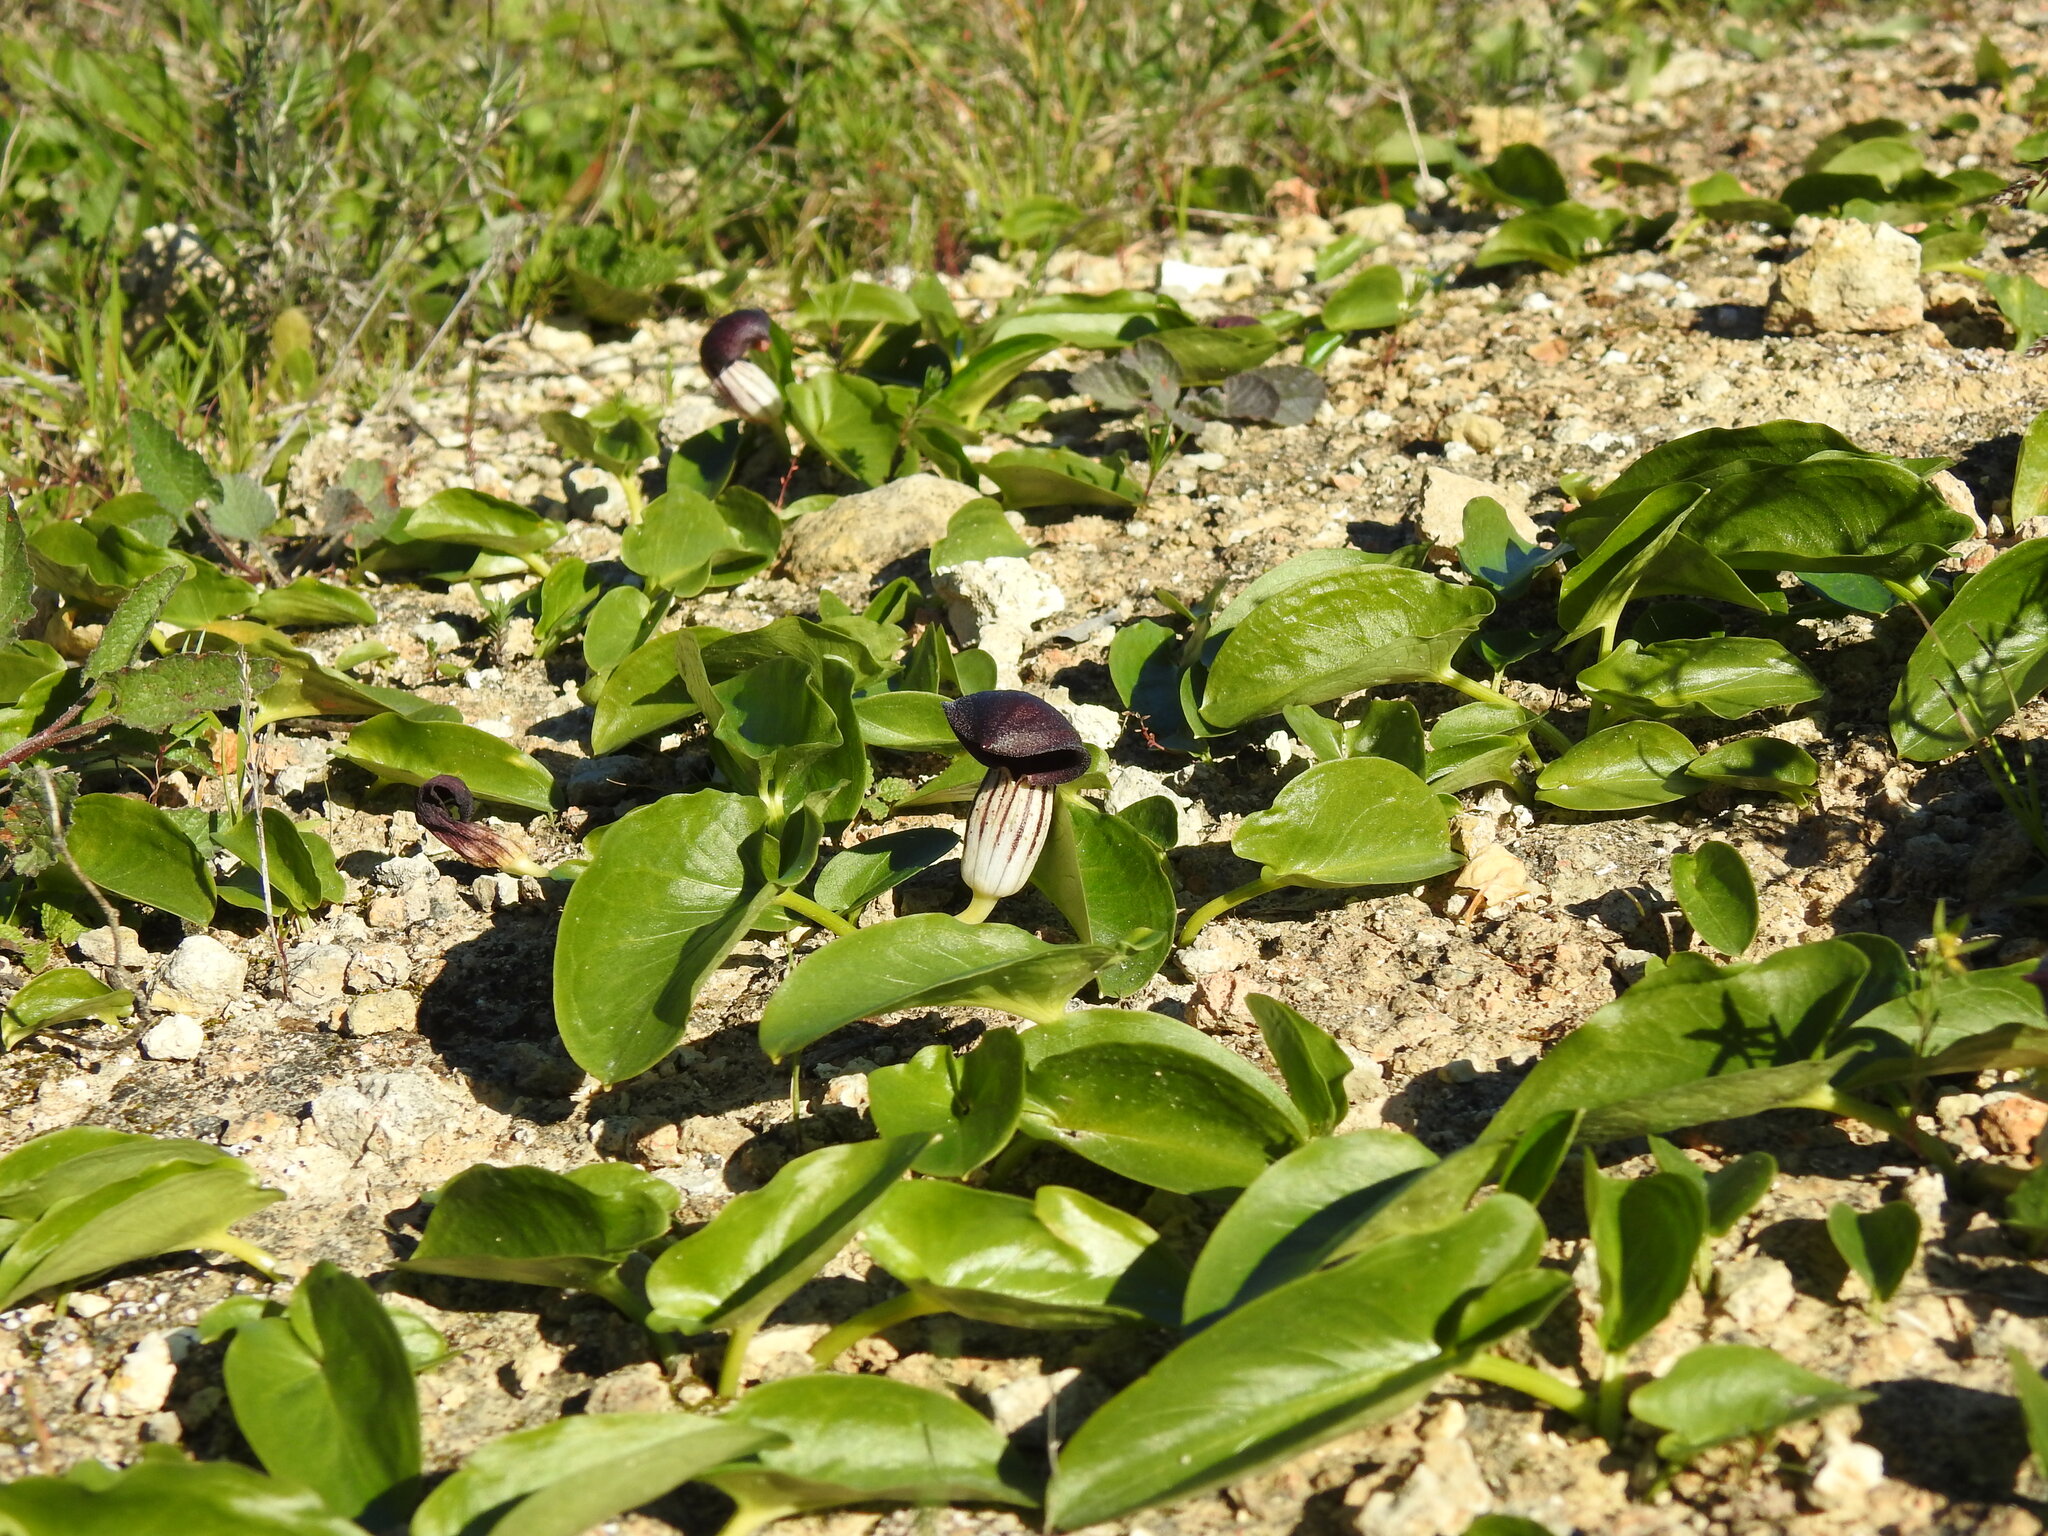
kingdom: Plantae
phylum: Tracheophyta
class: Liliopsida
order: Alismatales
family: Araceae
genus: Arisarum
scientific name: Arisarum simorrhinum
